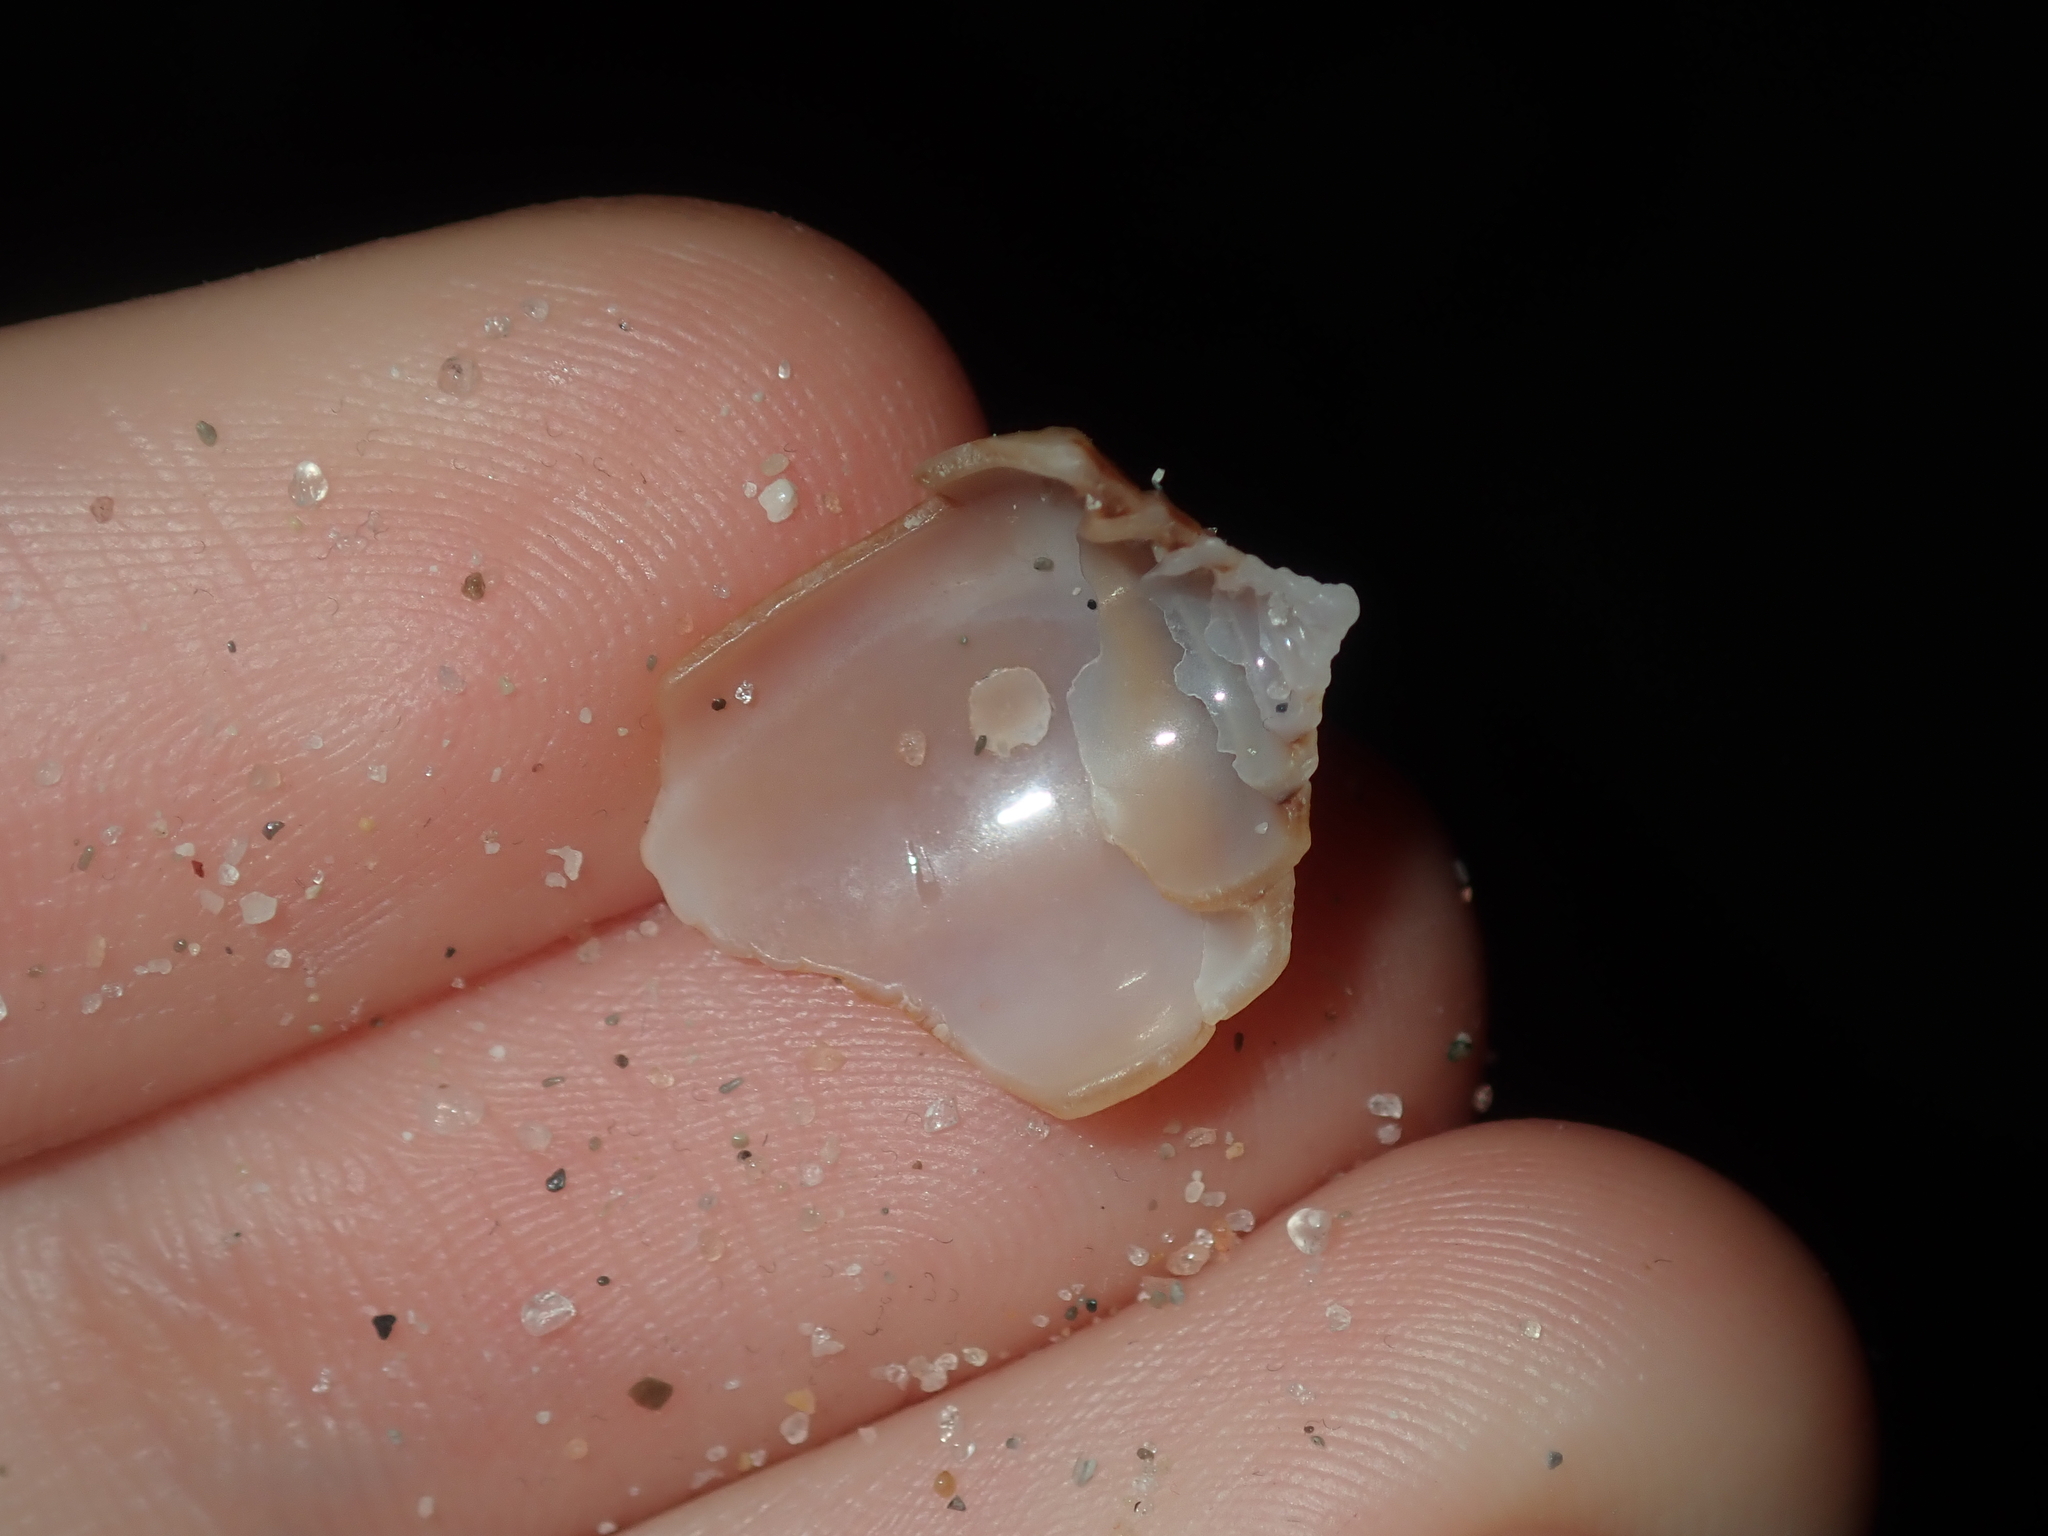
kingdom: Animalia
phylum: Mollusca
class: Gastropoda
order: Neogastropoda
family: Conidae
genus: Conus
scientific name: Conus anemone
